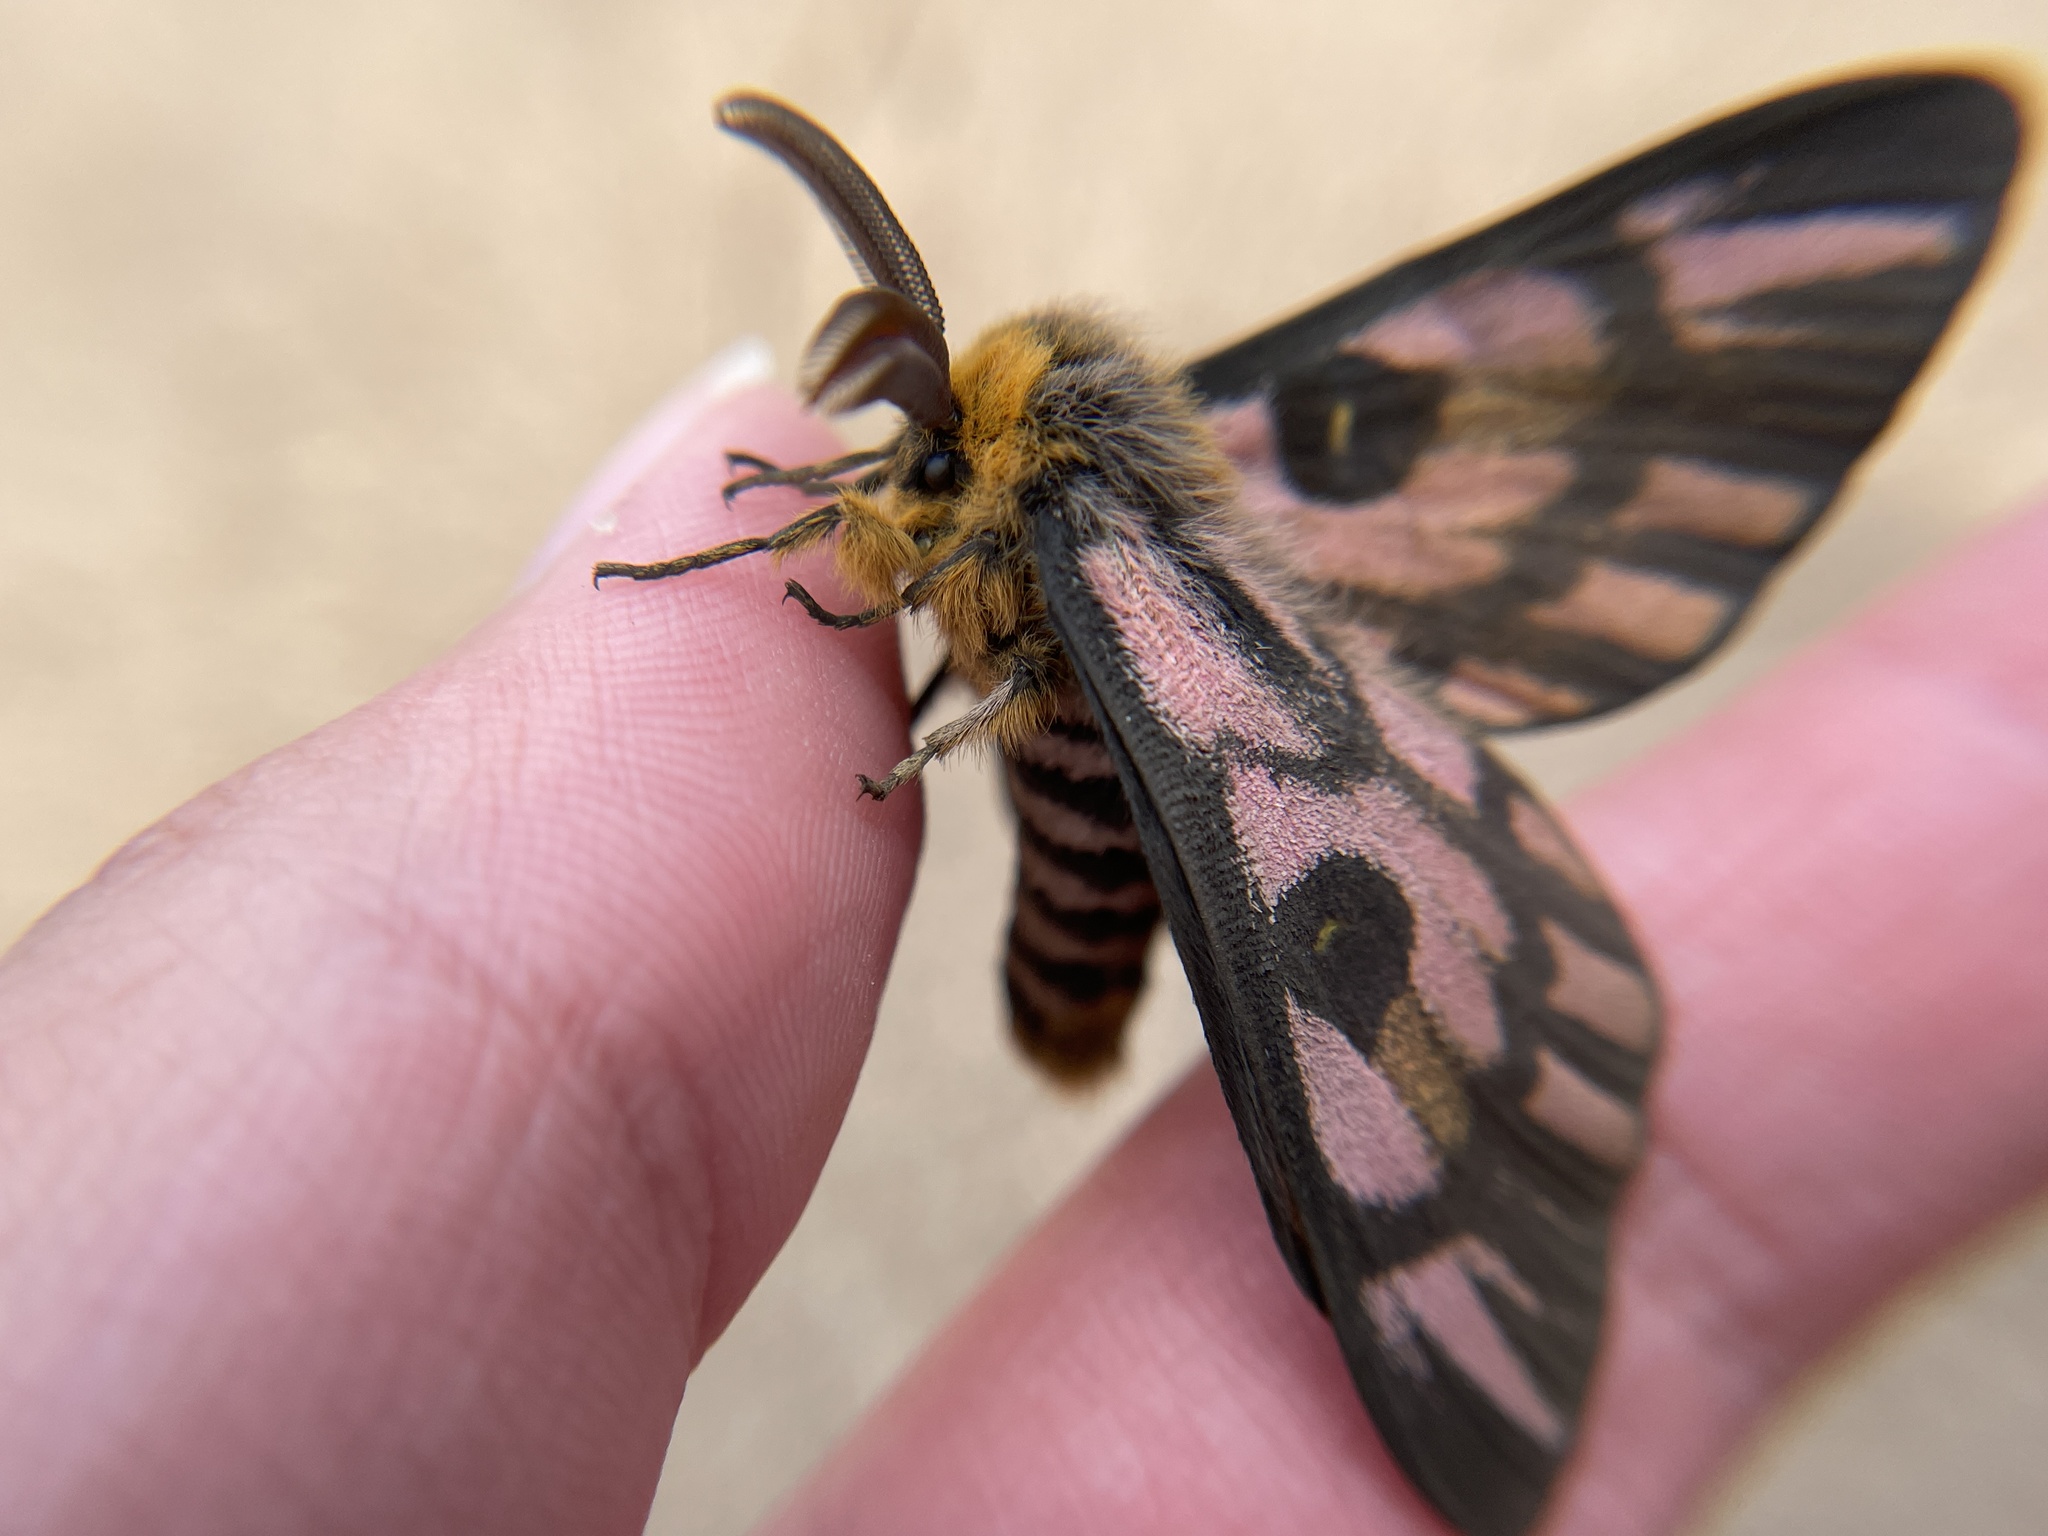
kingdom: Animalia
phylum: Arthropoda
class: Insecta
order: Lepidoptera
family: Saturniidae
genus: Hemileuca
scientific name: Hemileuca eglanterina
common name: Western sheepmoth
